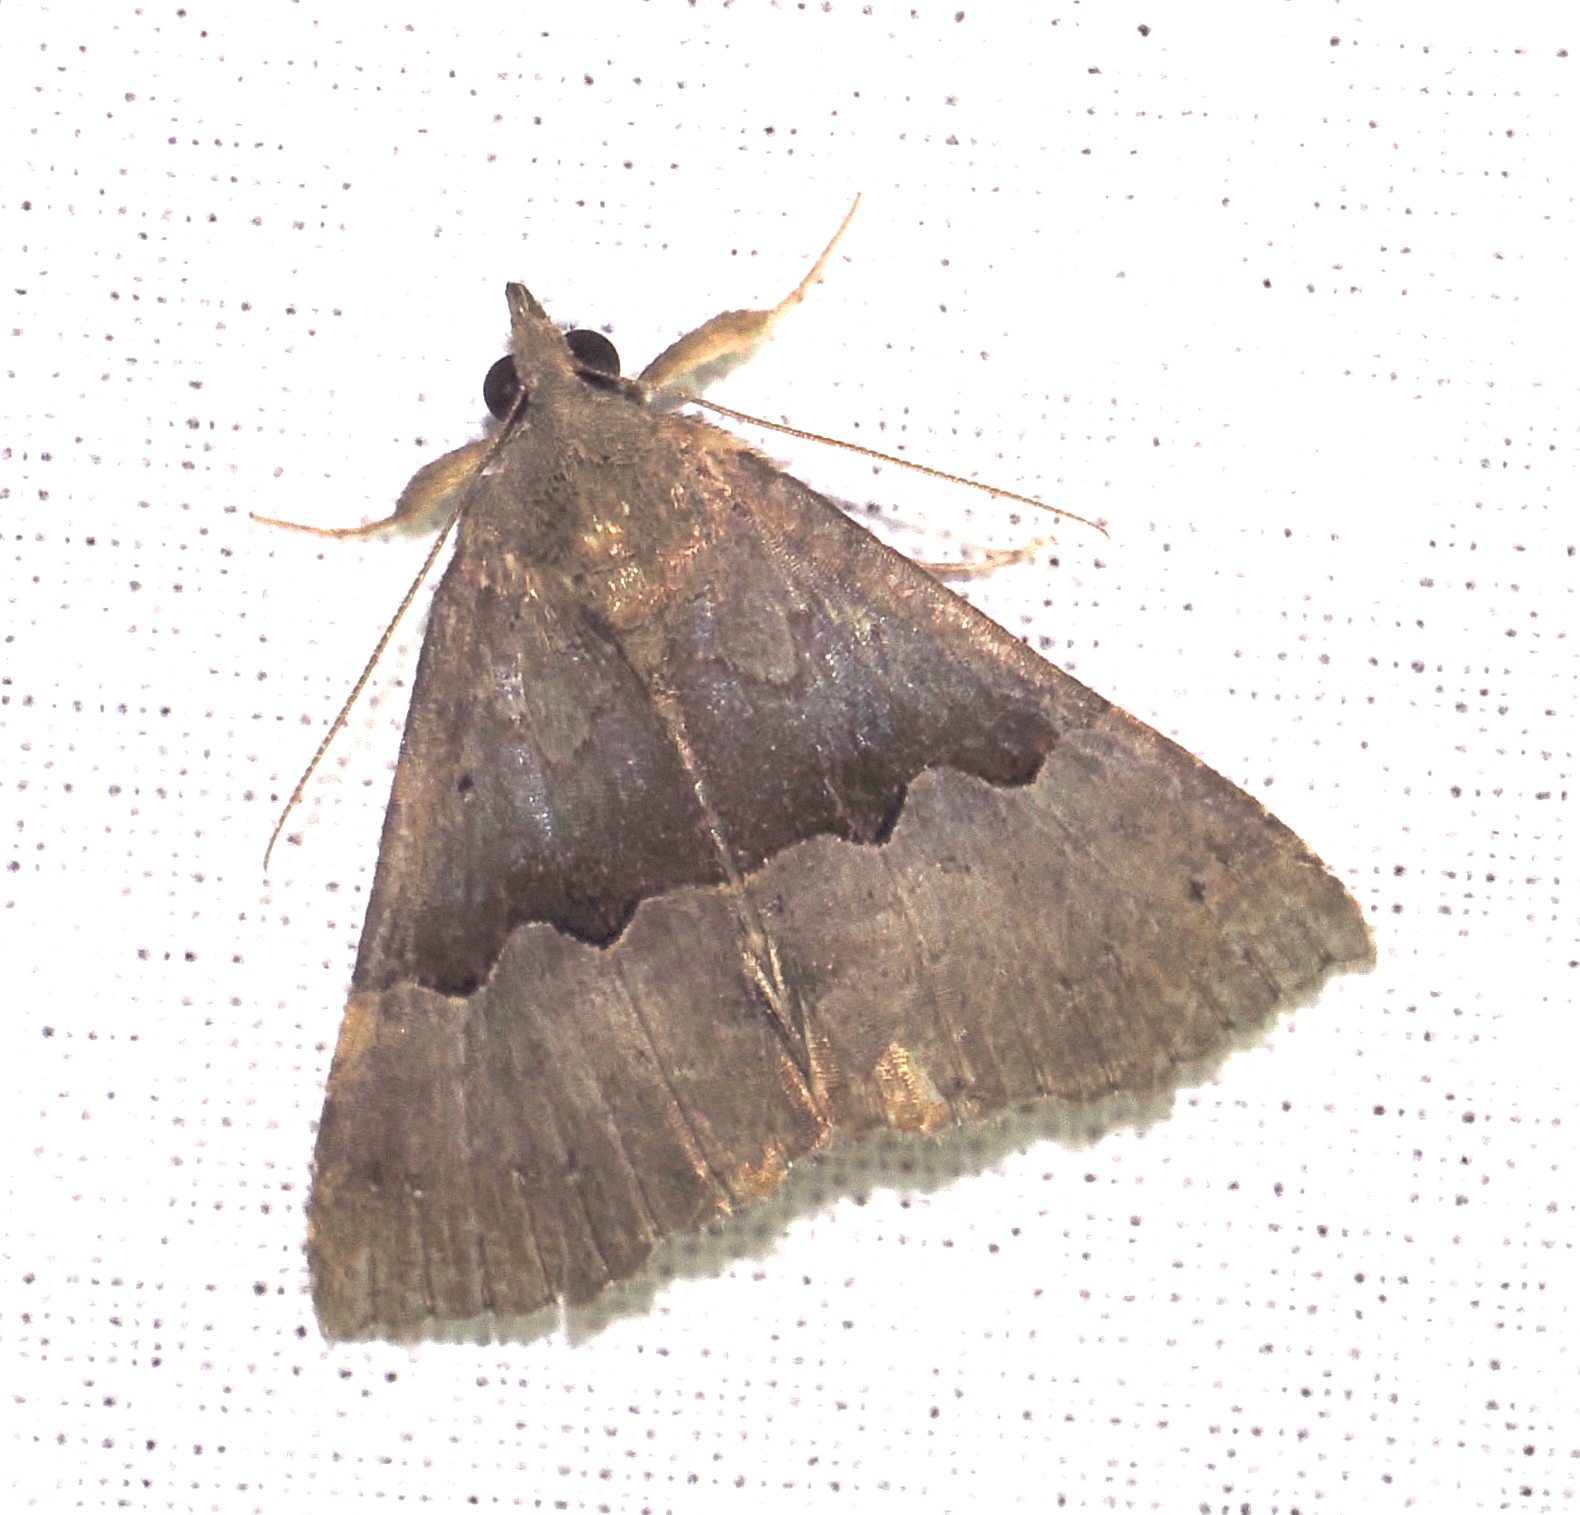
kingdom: Animalia
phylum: Arthropoda
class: Insecta
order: Lepidoptera
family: Erebidae
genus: Hypena
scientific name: Hypena lativitta
